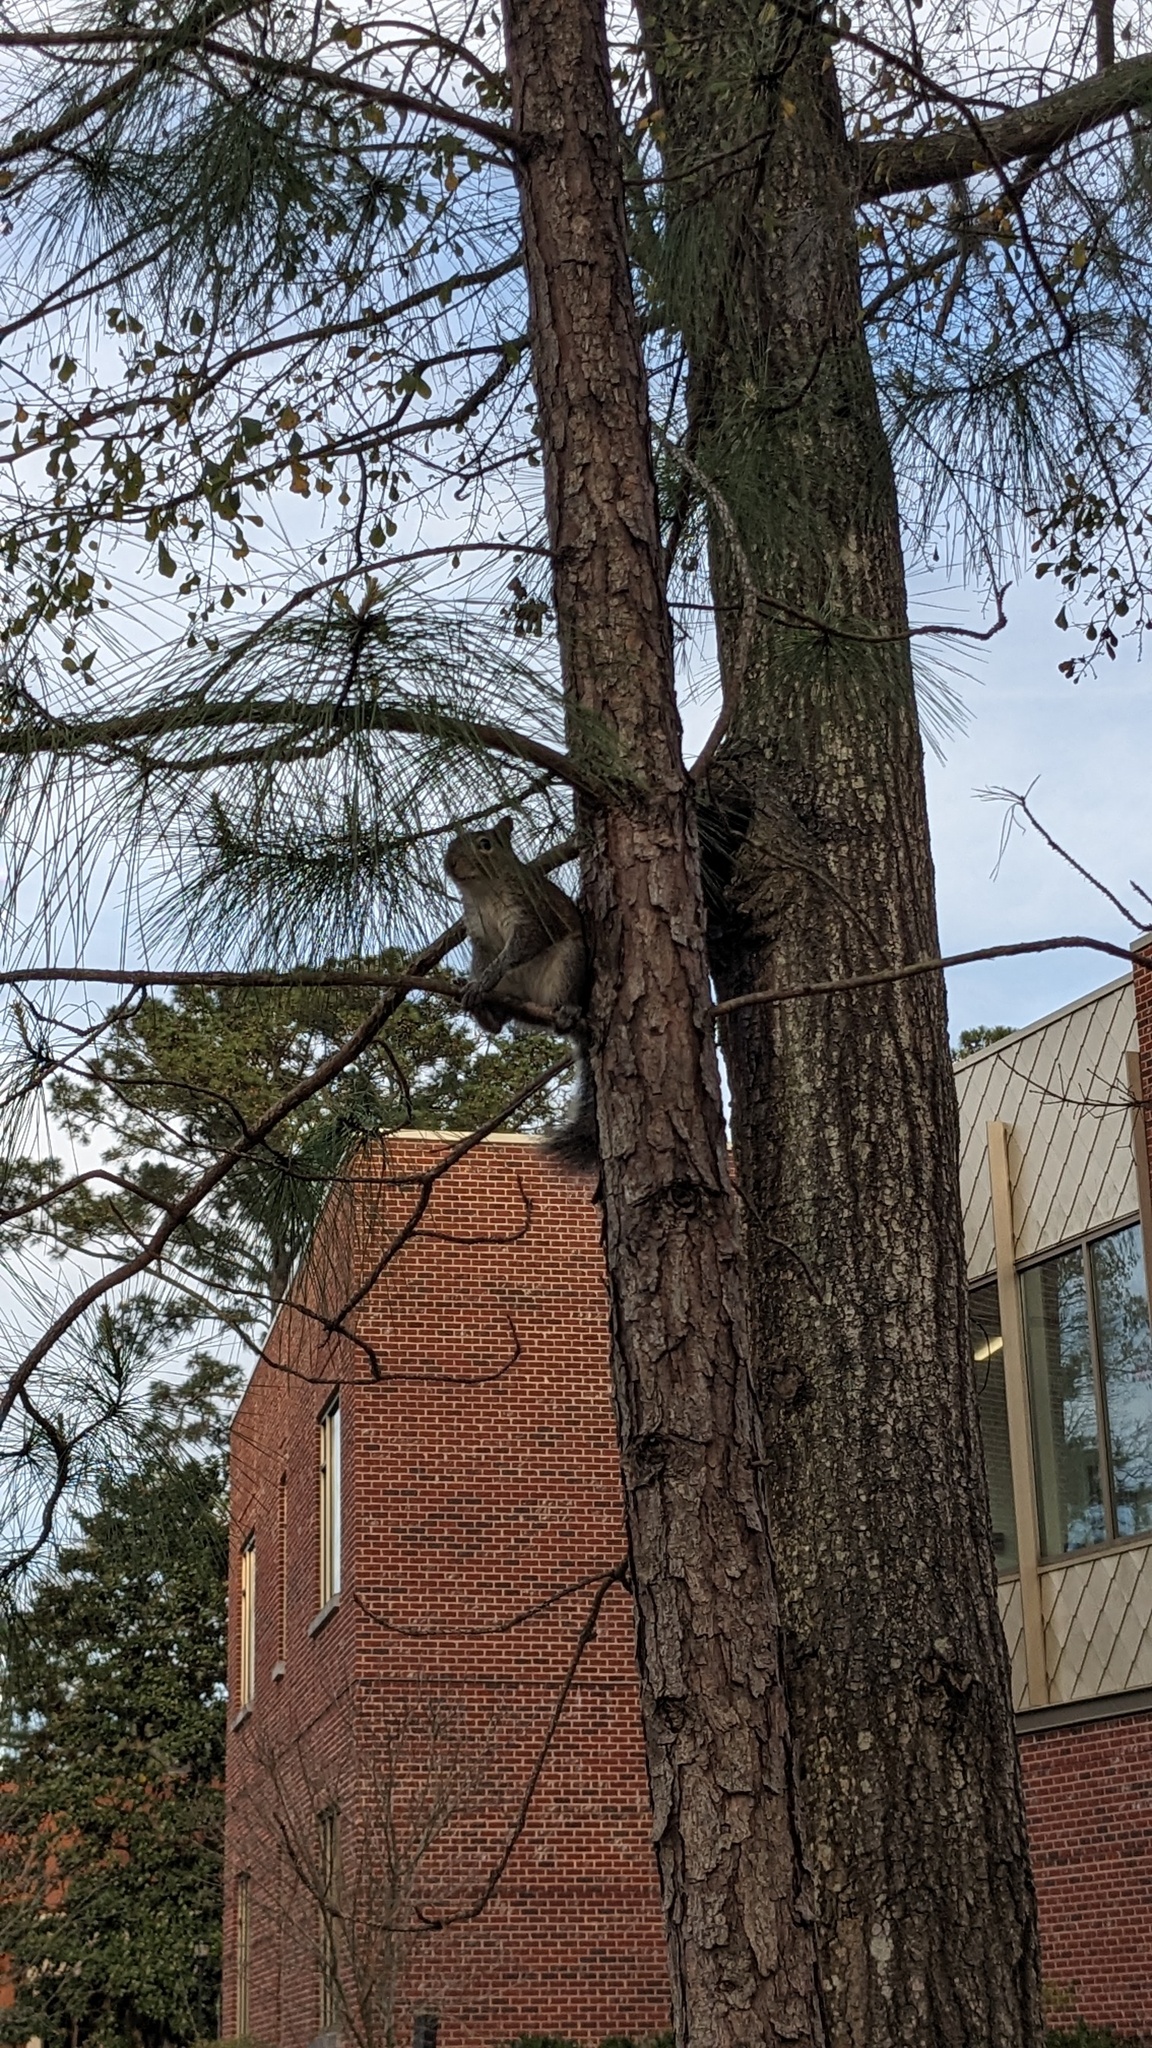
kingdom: Animalia
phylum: Chordata
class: Mammalia
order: Rodentia
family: Sciuridae
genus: Sciurus
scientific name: Sciurus carolinensis
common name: Eastern gray squirrel
